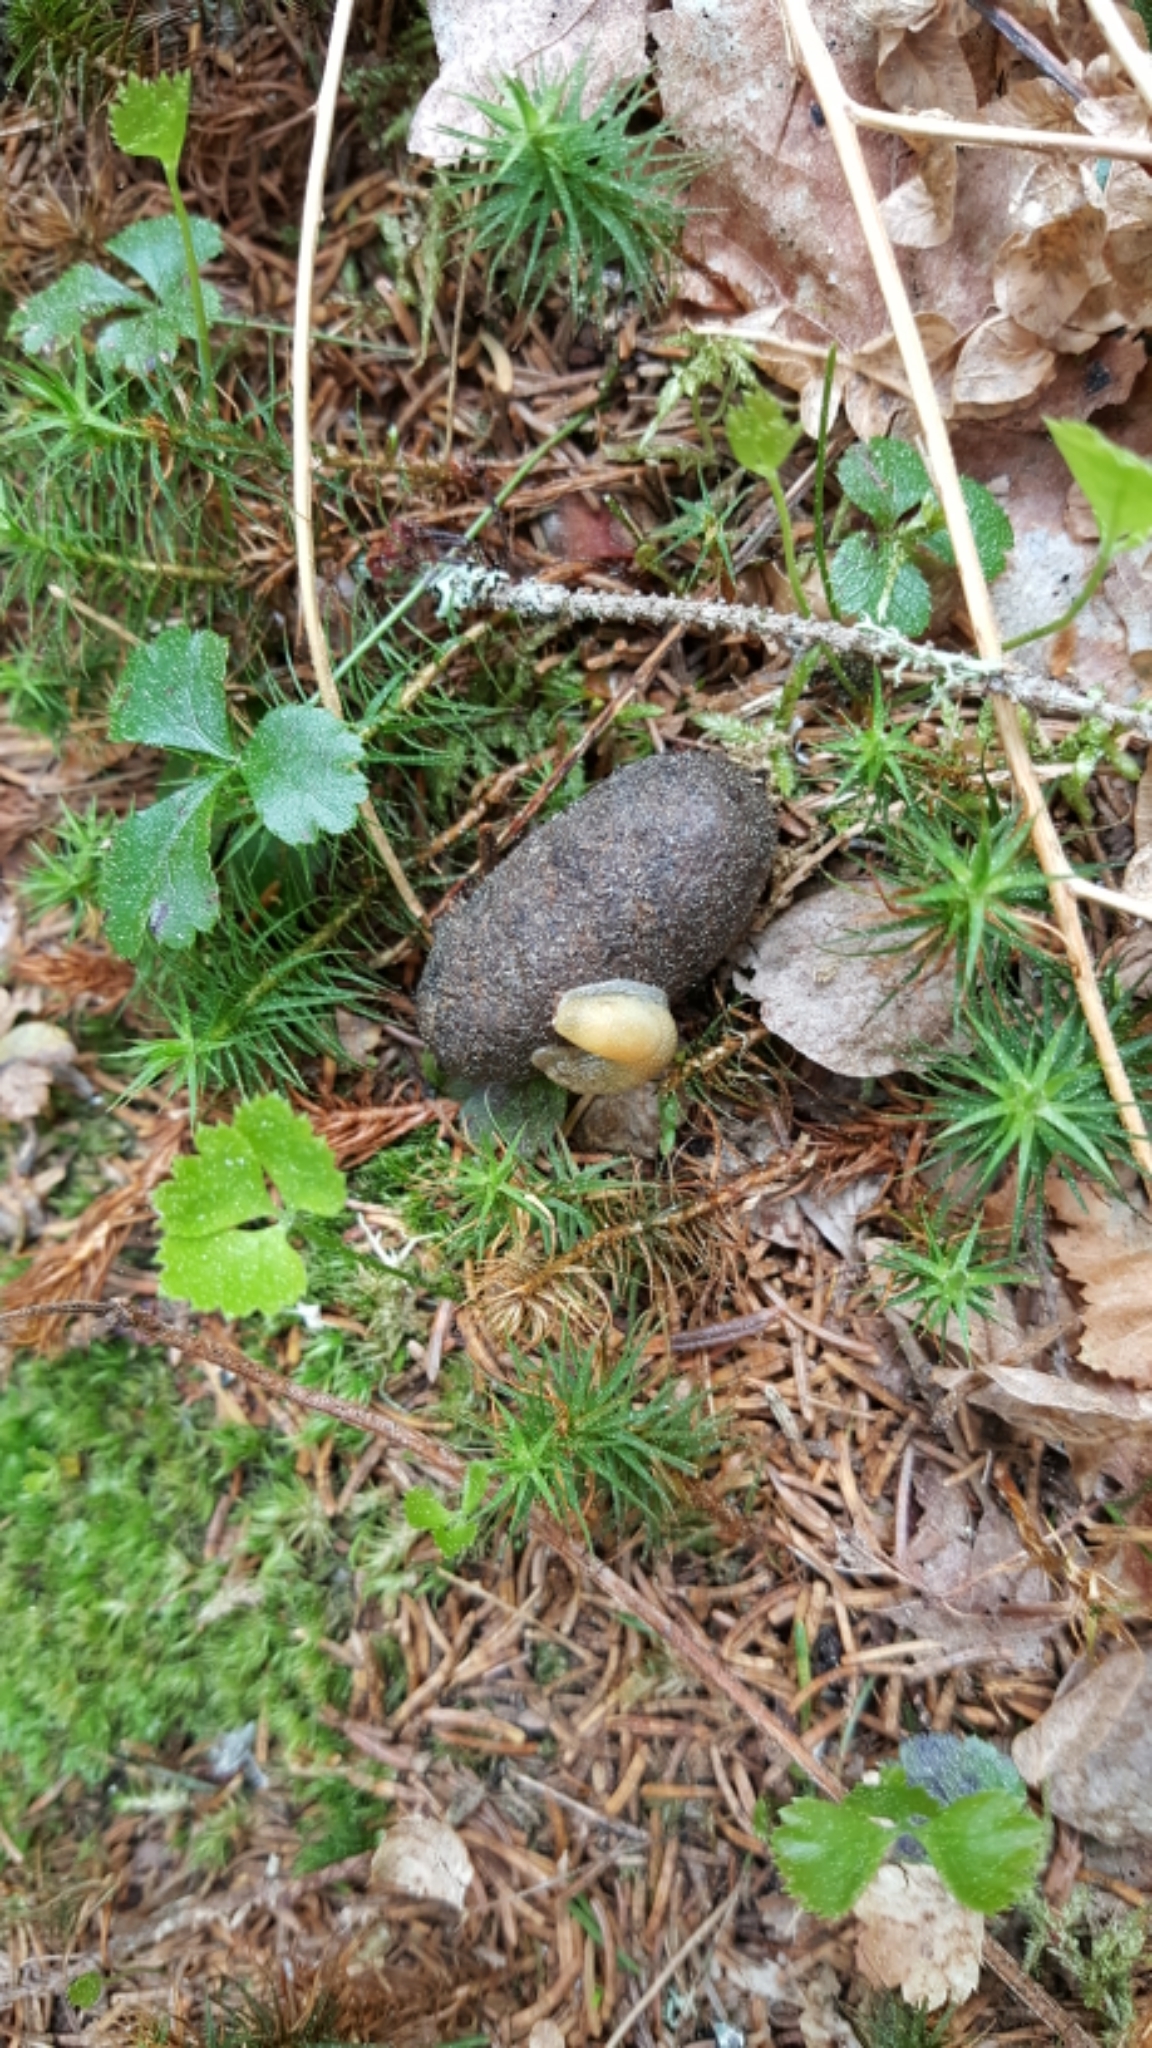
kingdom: Animalia
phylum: Chordata
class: Mammalia
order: Artiodactyla
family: Cervidae
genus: Alces
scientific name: Alces alces
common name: Moose
